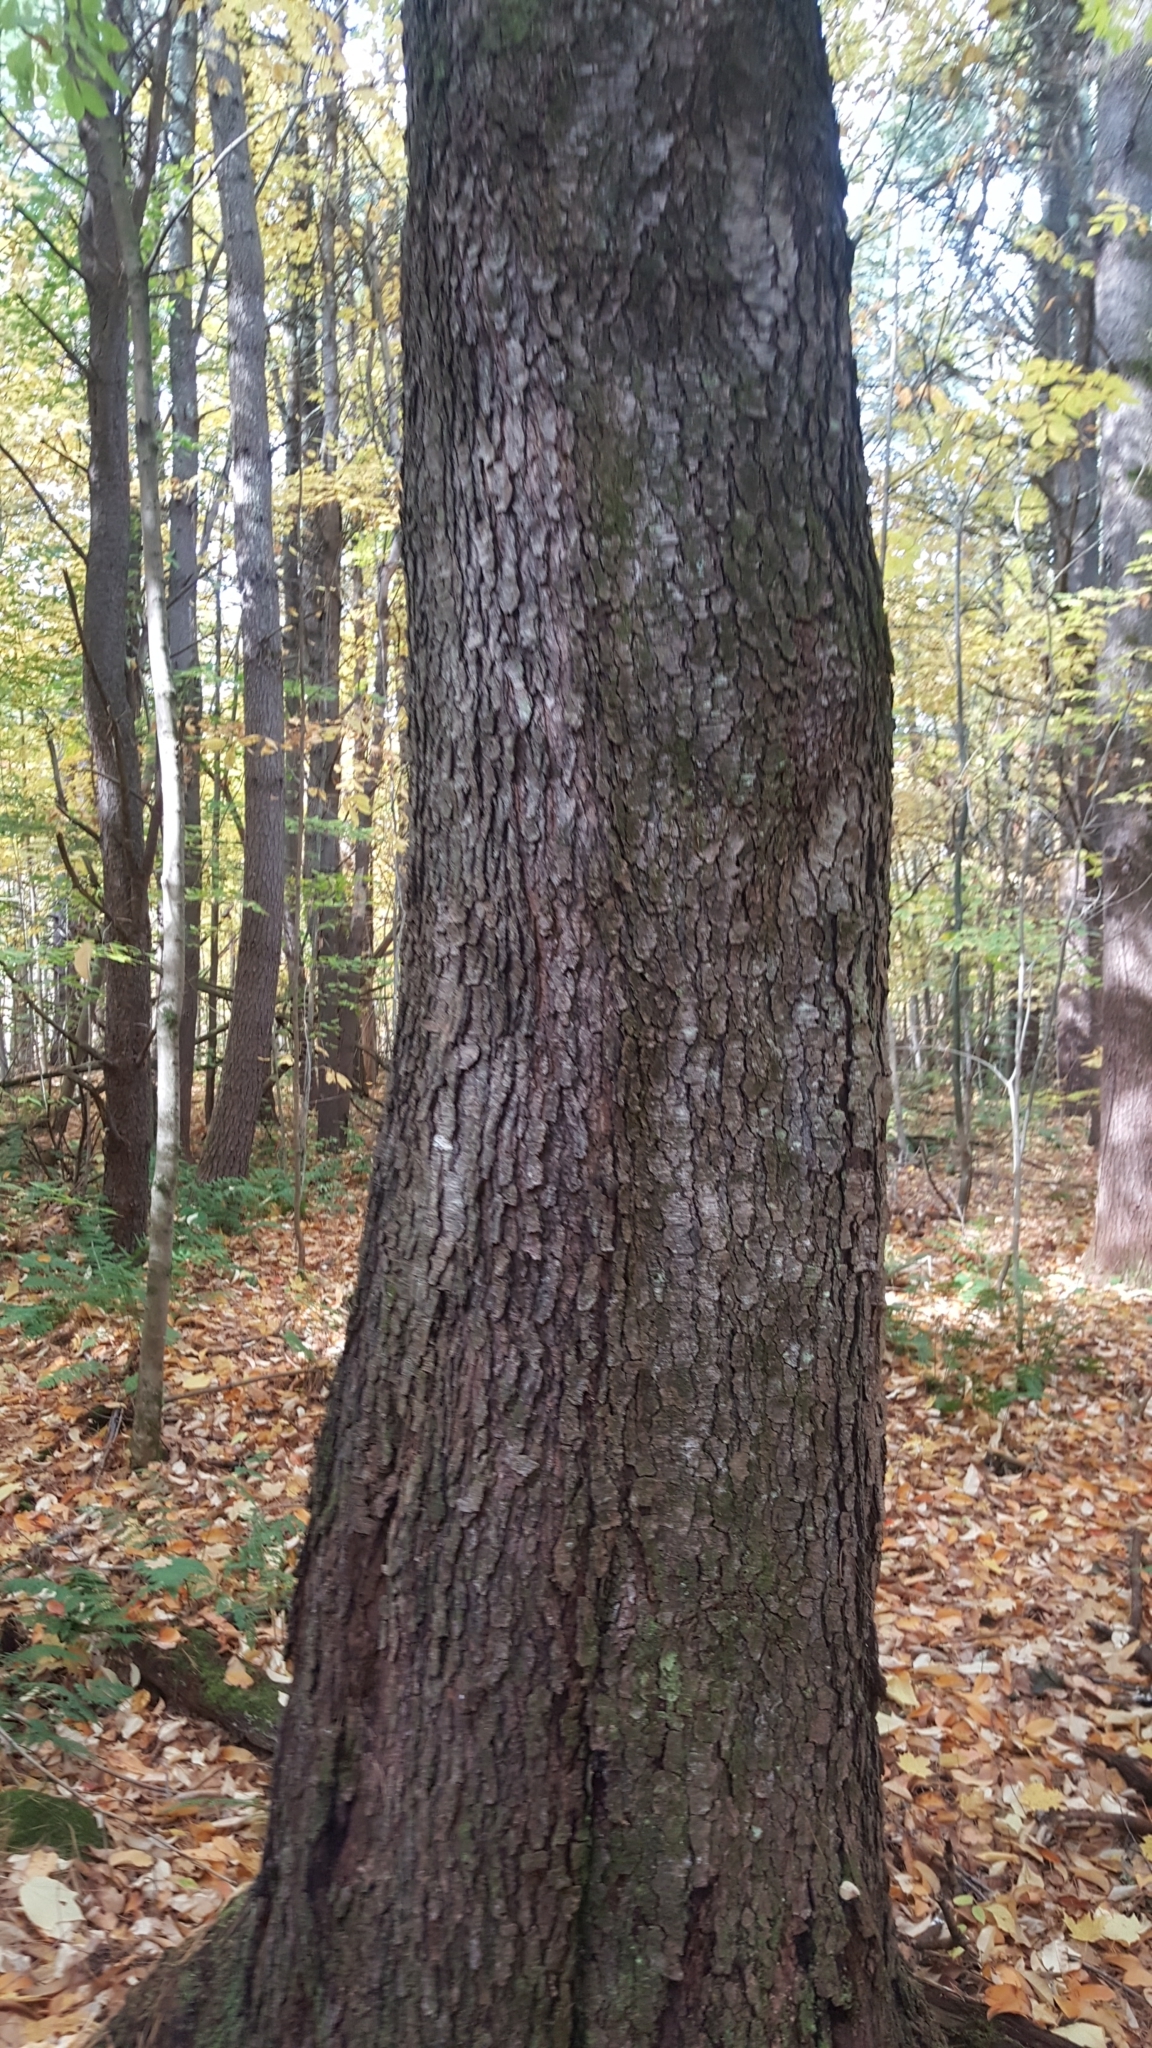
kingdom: Plantae
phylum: Tracheophyta
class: Magnoliopsida
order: Rosales
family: Rosaceae
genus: Prunus
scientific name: Prunus serotina
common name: Black cherry
